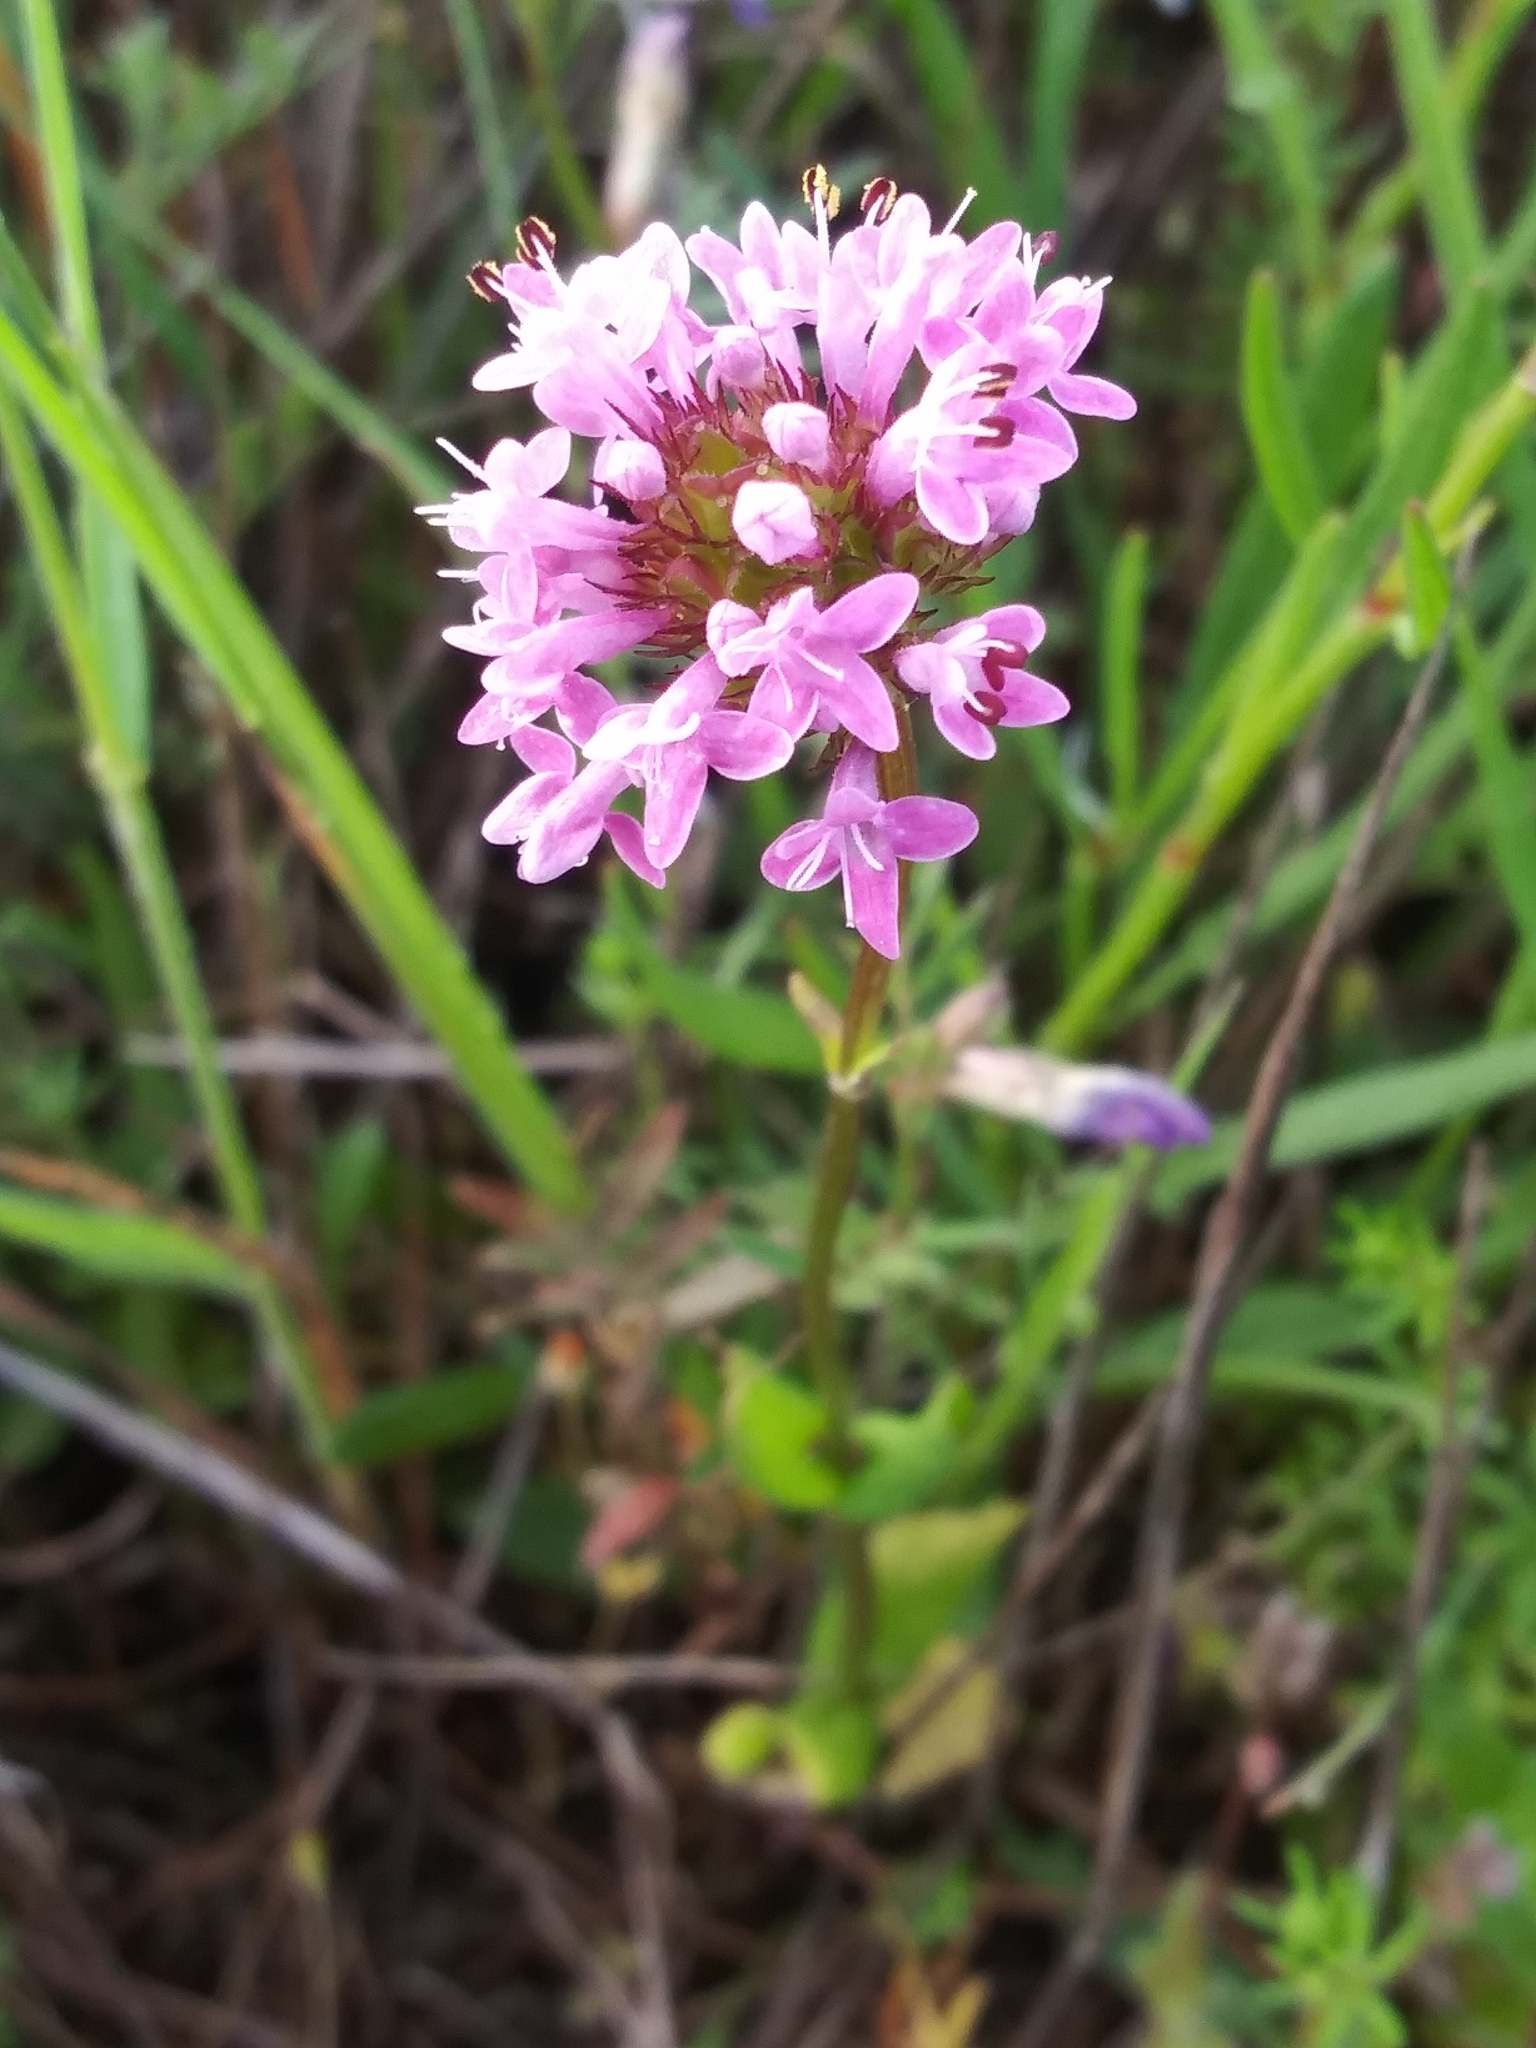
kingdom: Plantae
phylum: Tracheophyta
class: Magnoliopsida
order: Dipsacales
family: Caprifoliaceae
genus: Plectritis
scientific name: Plectritis congesta
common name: Pink plectritis
